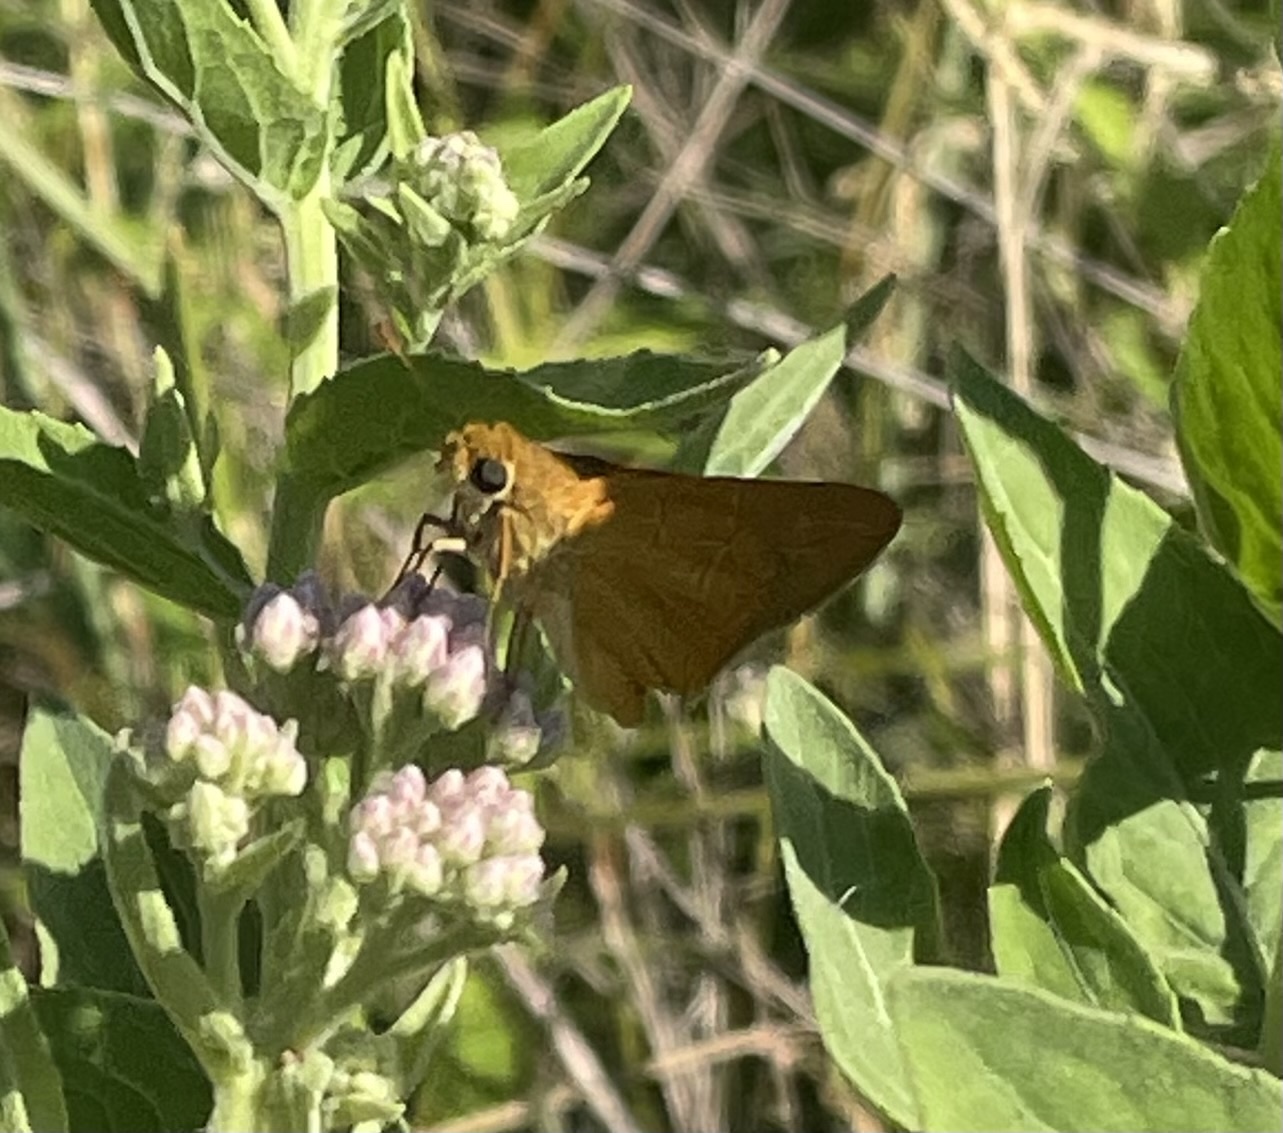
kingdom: Animalia
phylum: Arthropoda
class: Insecta
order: Lepidoptera
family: Hesperiidae
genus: Atrytone
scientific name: Atrytone delaware
